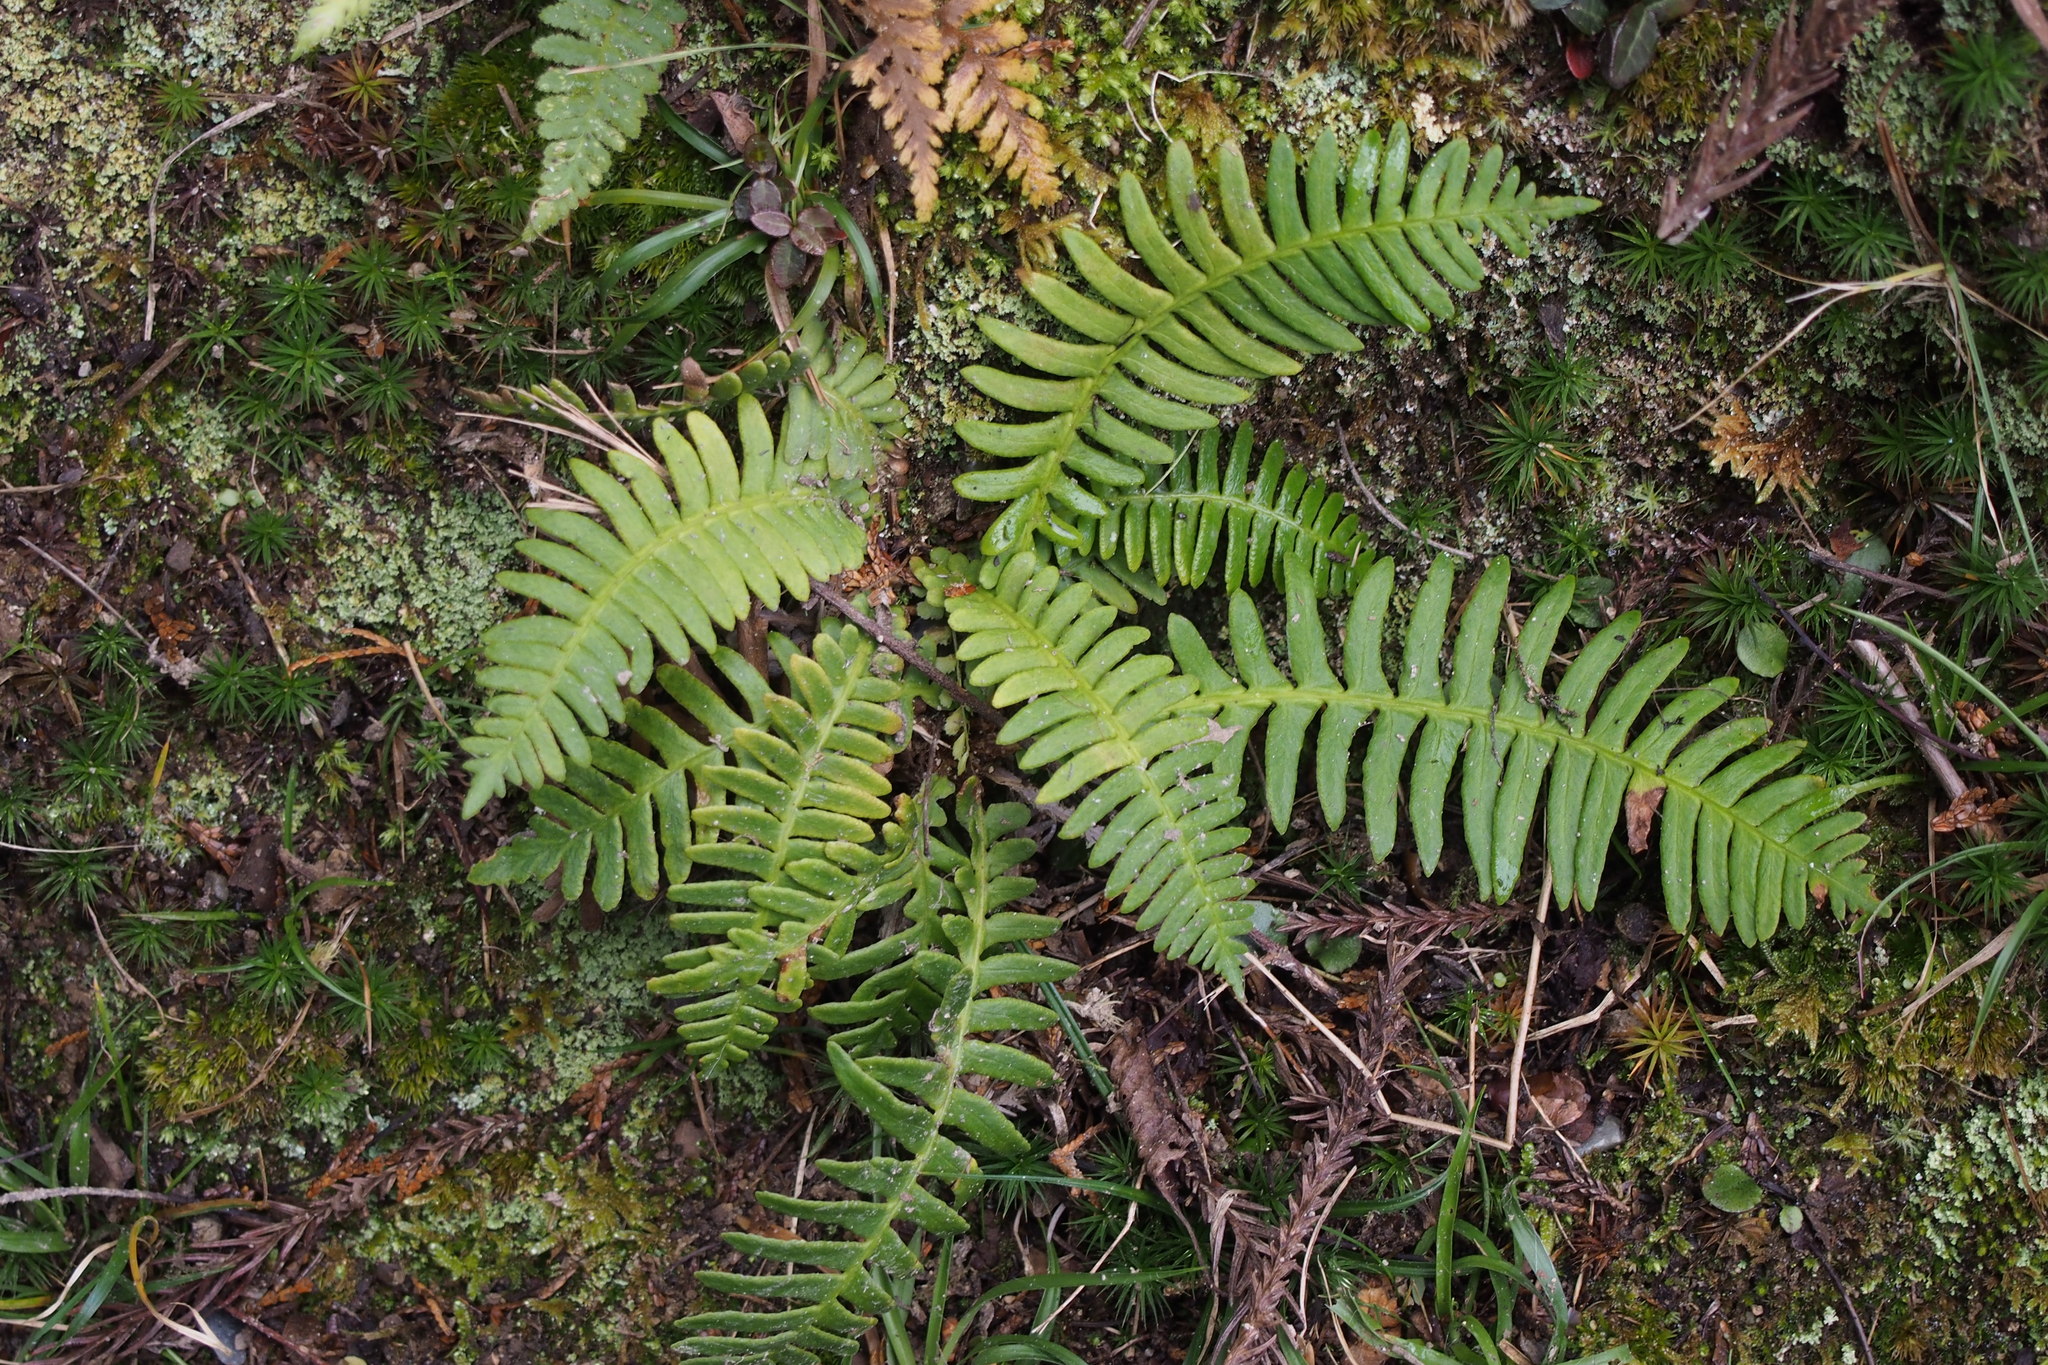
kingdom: Plantae
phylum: Tracheophyta
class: Polypodiopsida
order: Polypodiales
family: Blechnaceae
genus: Spicantopsis
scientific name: Spicantopsis niponica
